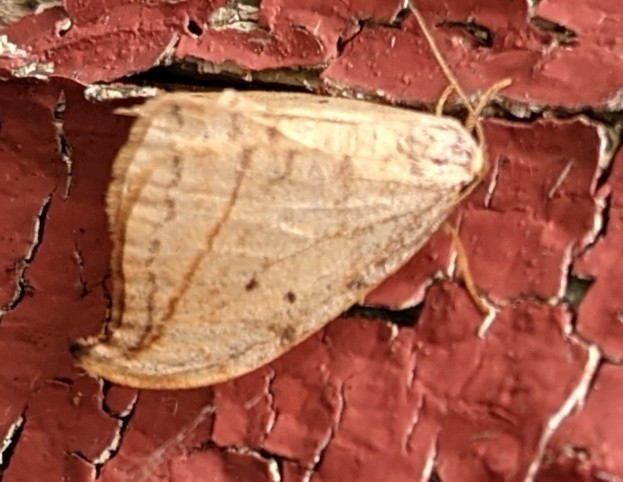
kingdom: Animalia
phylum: Arthropoda
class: Insecta
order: Lepidoptera
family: Drepanidae
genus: Drepana
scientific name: Drepana arcuata
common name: Arched hooktip moth
